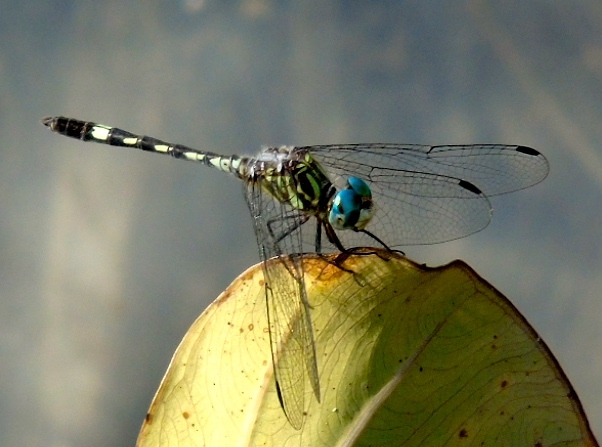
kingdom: Animalia
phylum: Arthropoda
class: Insecta
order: Odonata
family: Libellulidae
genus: Micrathyria
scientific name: Micrathyria hagenii
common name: Thornbush dasher
